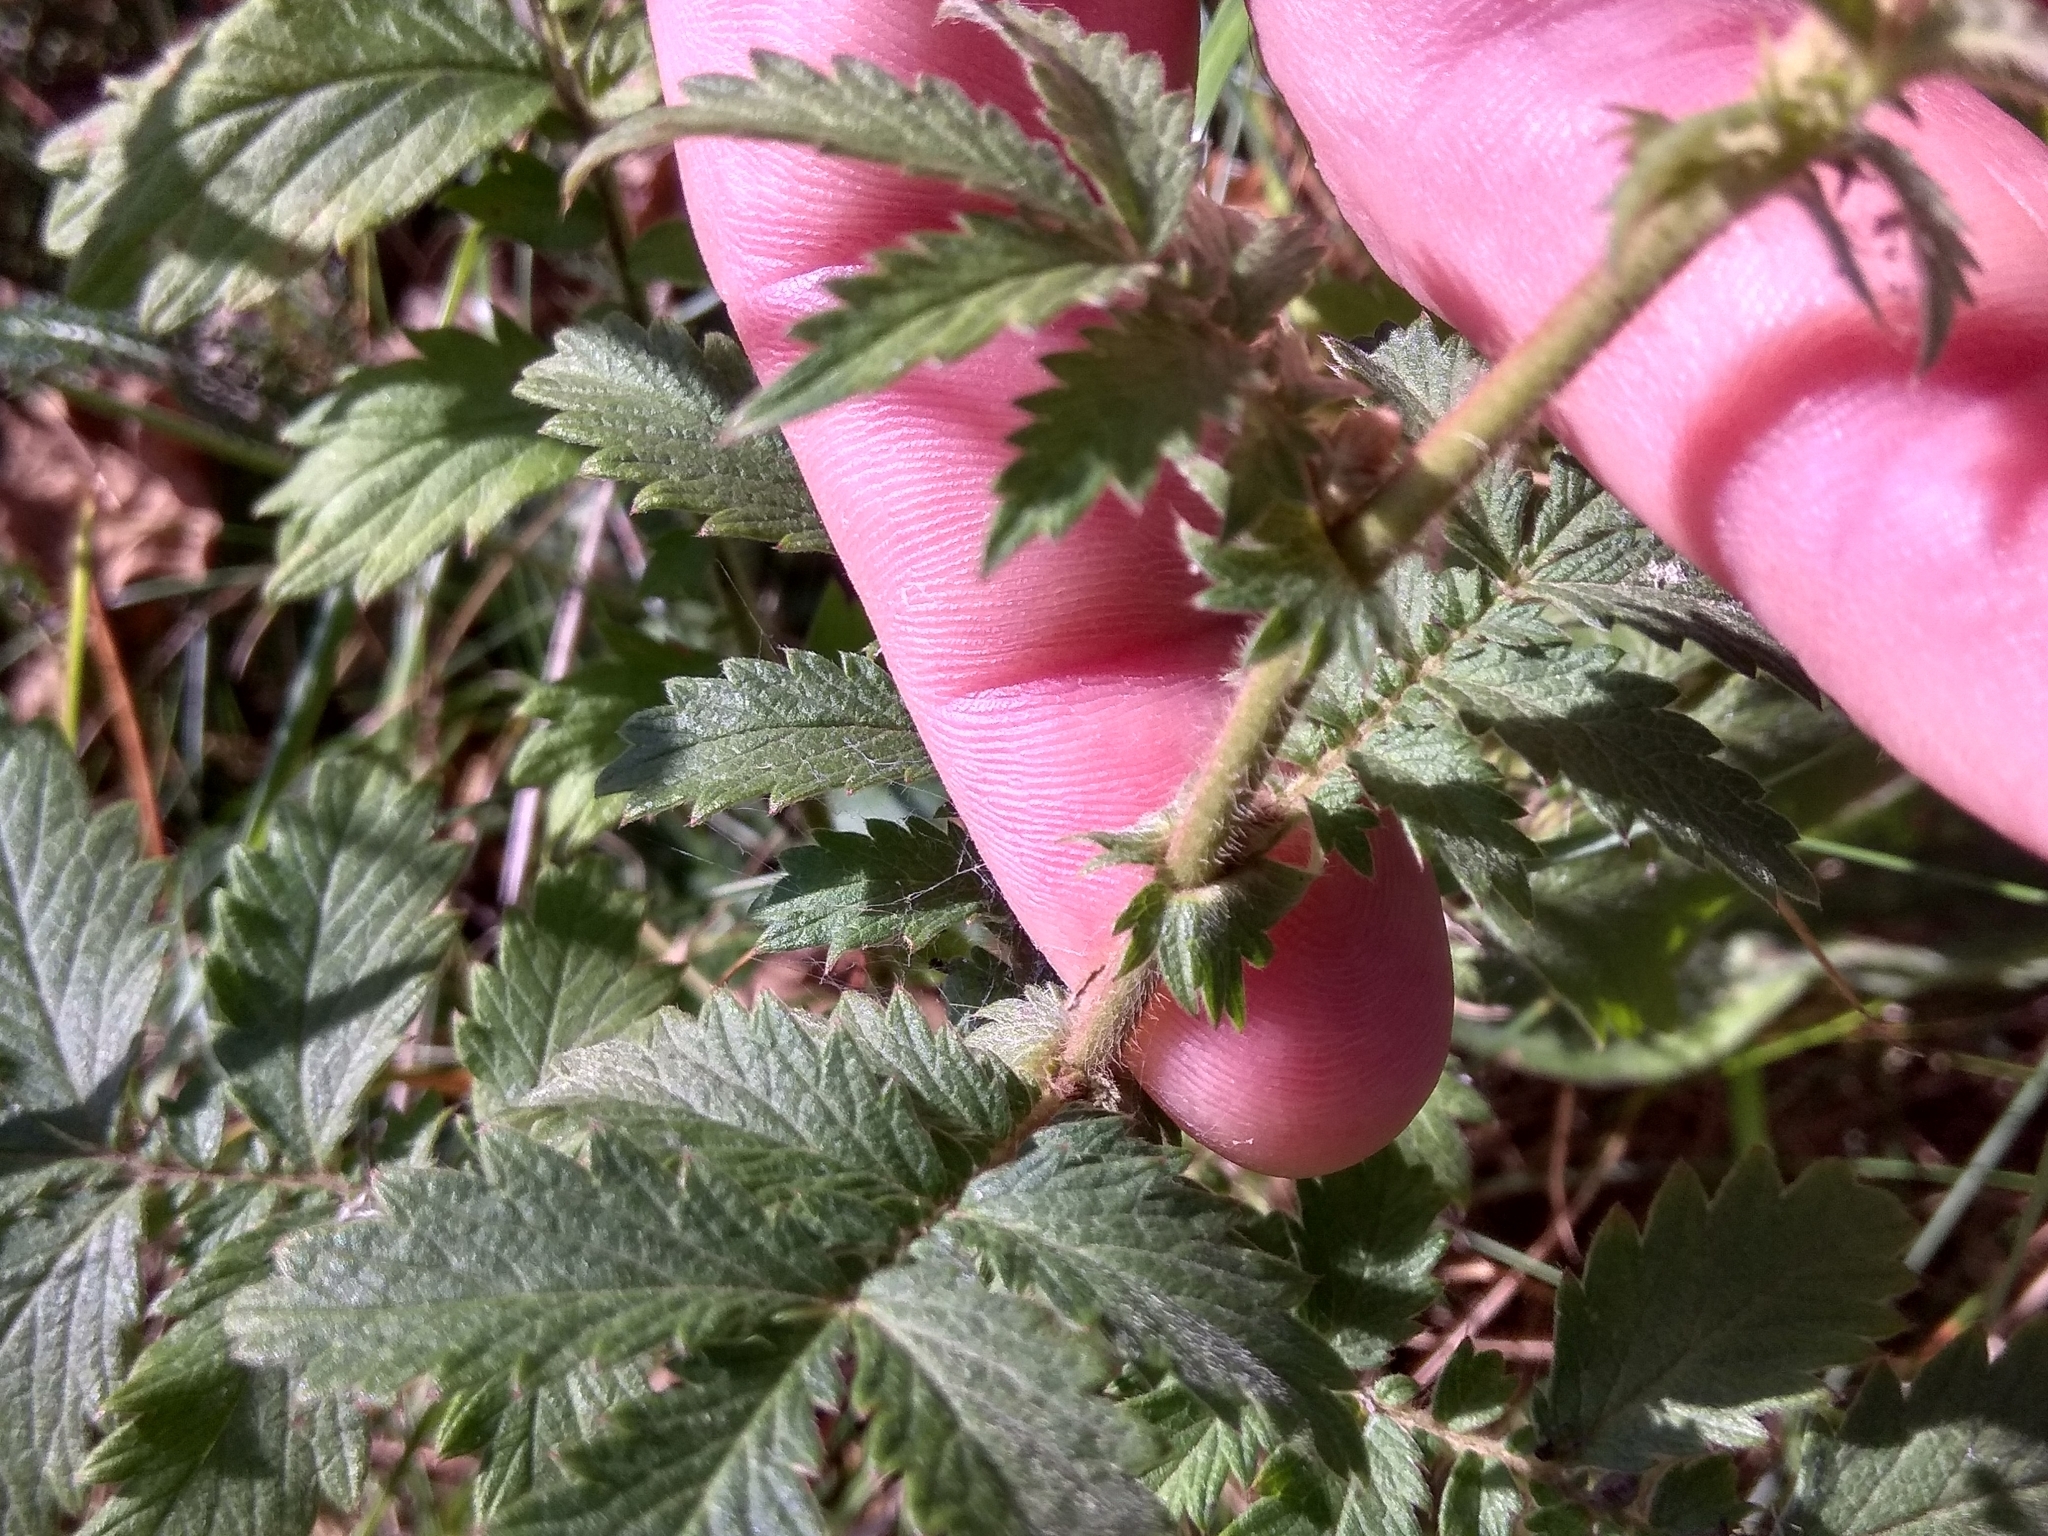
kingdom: Plantae
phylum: Tracheophyta
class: Magnoliopsida
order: Rosales
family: Rosaceae
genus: Agrimonia
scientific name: Agrimonia eupatoria
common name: Agrimony
